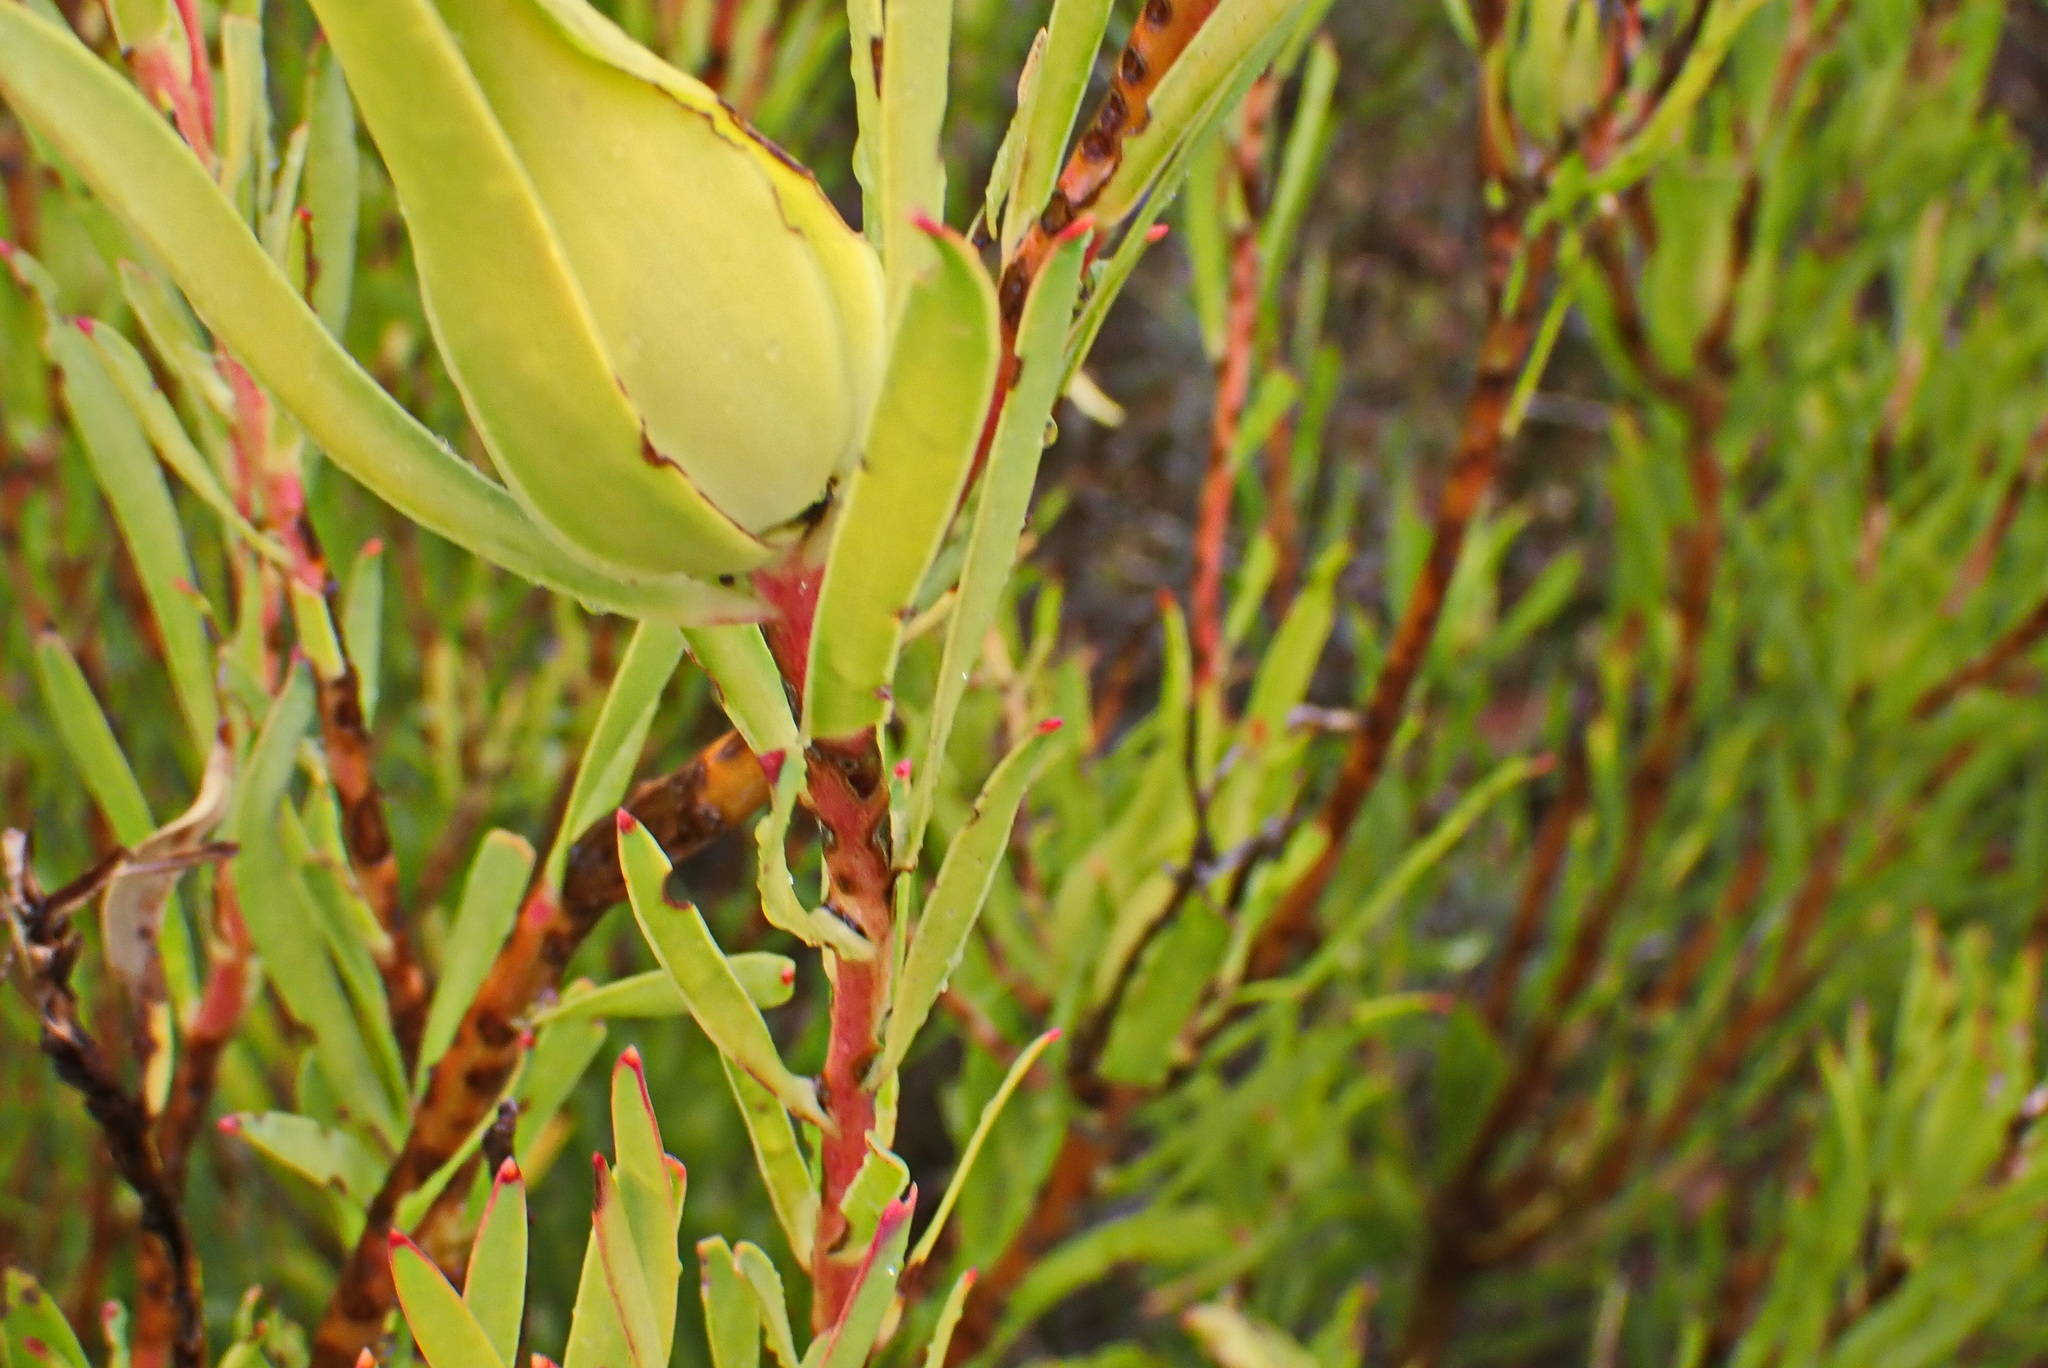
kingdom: Plantae
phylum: Tracheophyta
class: Magnoliopsida
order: Proteales
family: Proteaceae
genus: Leucadendron
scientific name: Leucadendron salignum
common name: Common sunshine conebush
